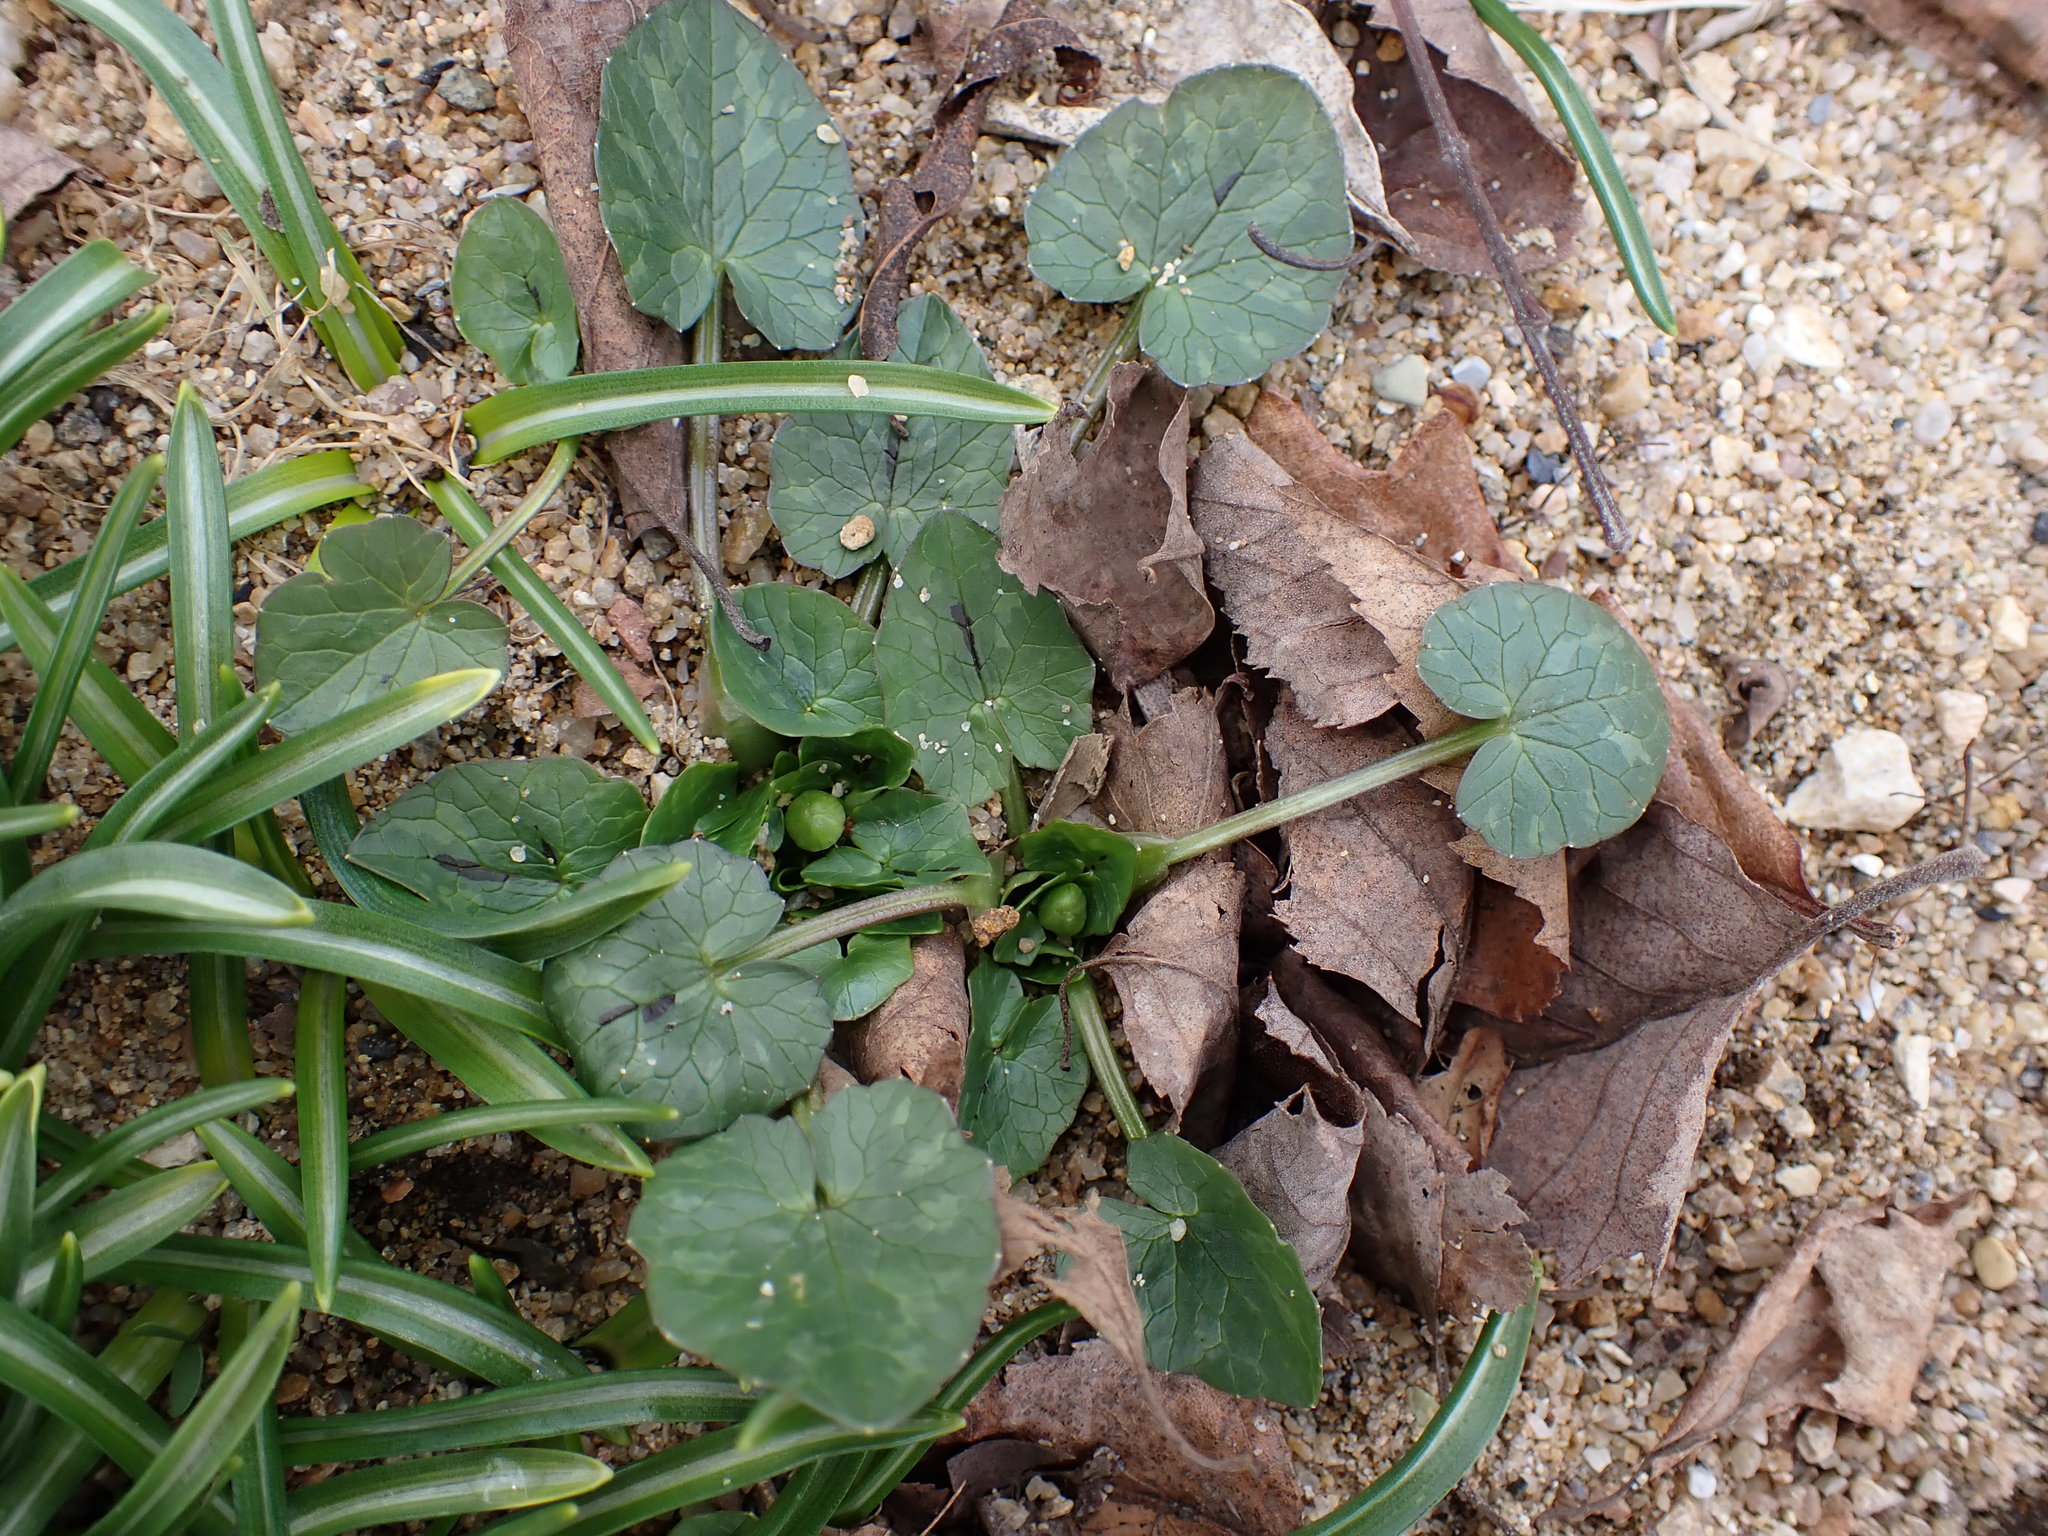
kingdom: Plantae
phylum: Tracheophyta
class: Magnoliopsida
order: Ranunculales
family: Ranunculaceae
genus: Ficaria
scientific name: Ficaria verna
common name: Lesser celandine
